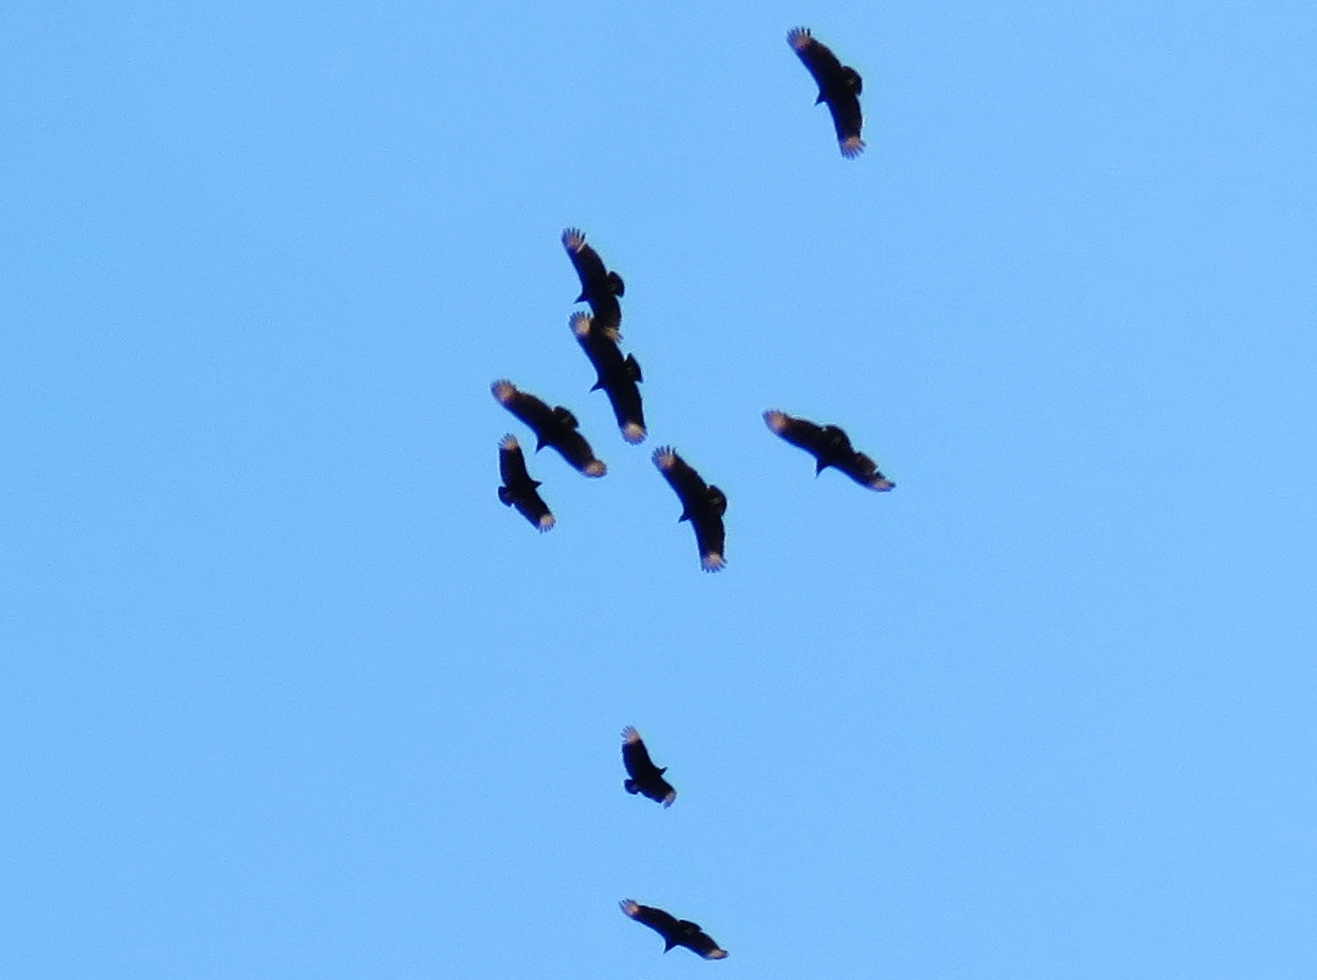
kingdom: Animalia
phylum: Chordata
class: Aves
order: Accipitriformes
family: Cathartidae
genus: Coragyps
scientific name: Coragyps atratus
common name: Black vulture
